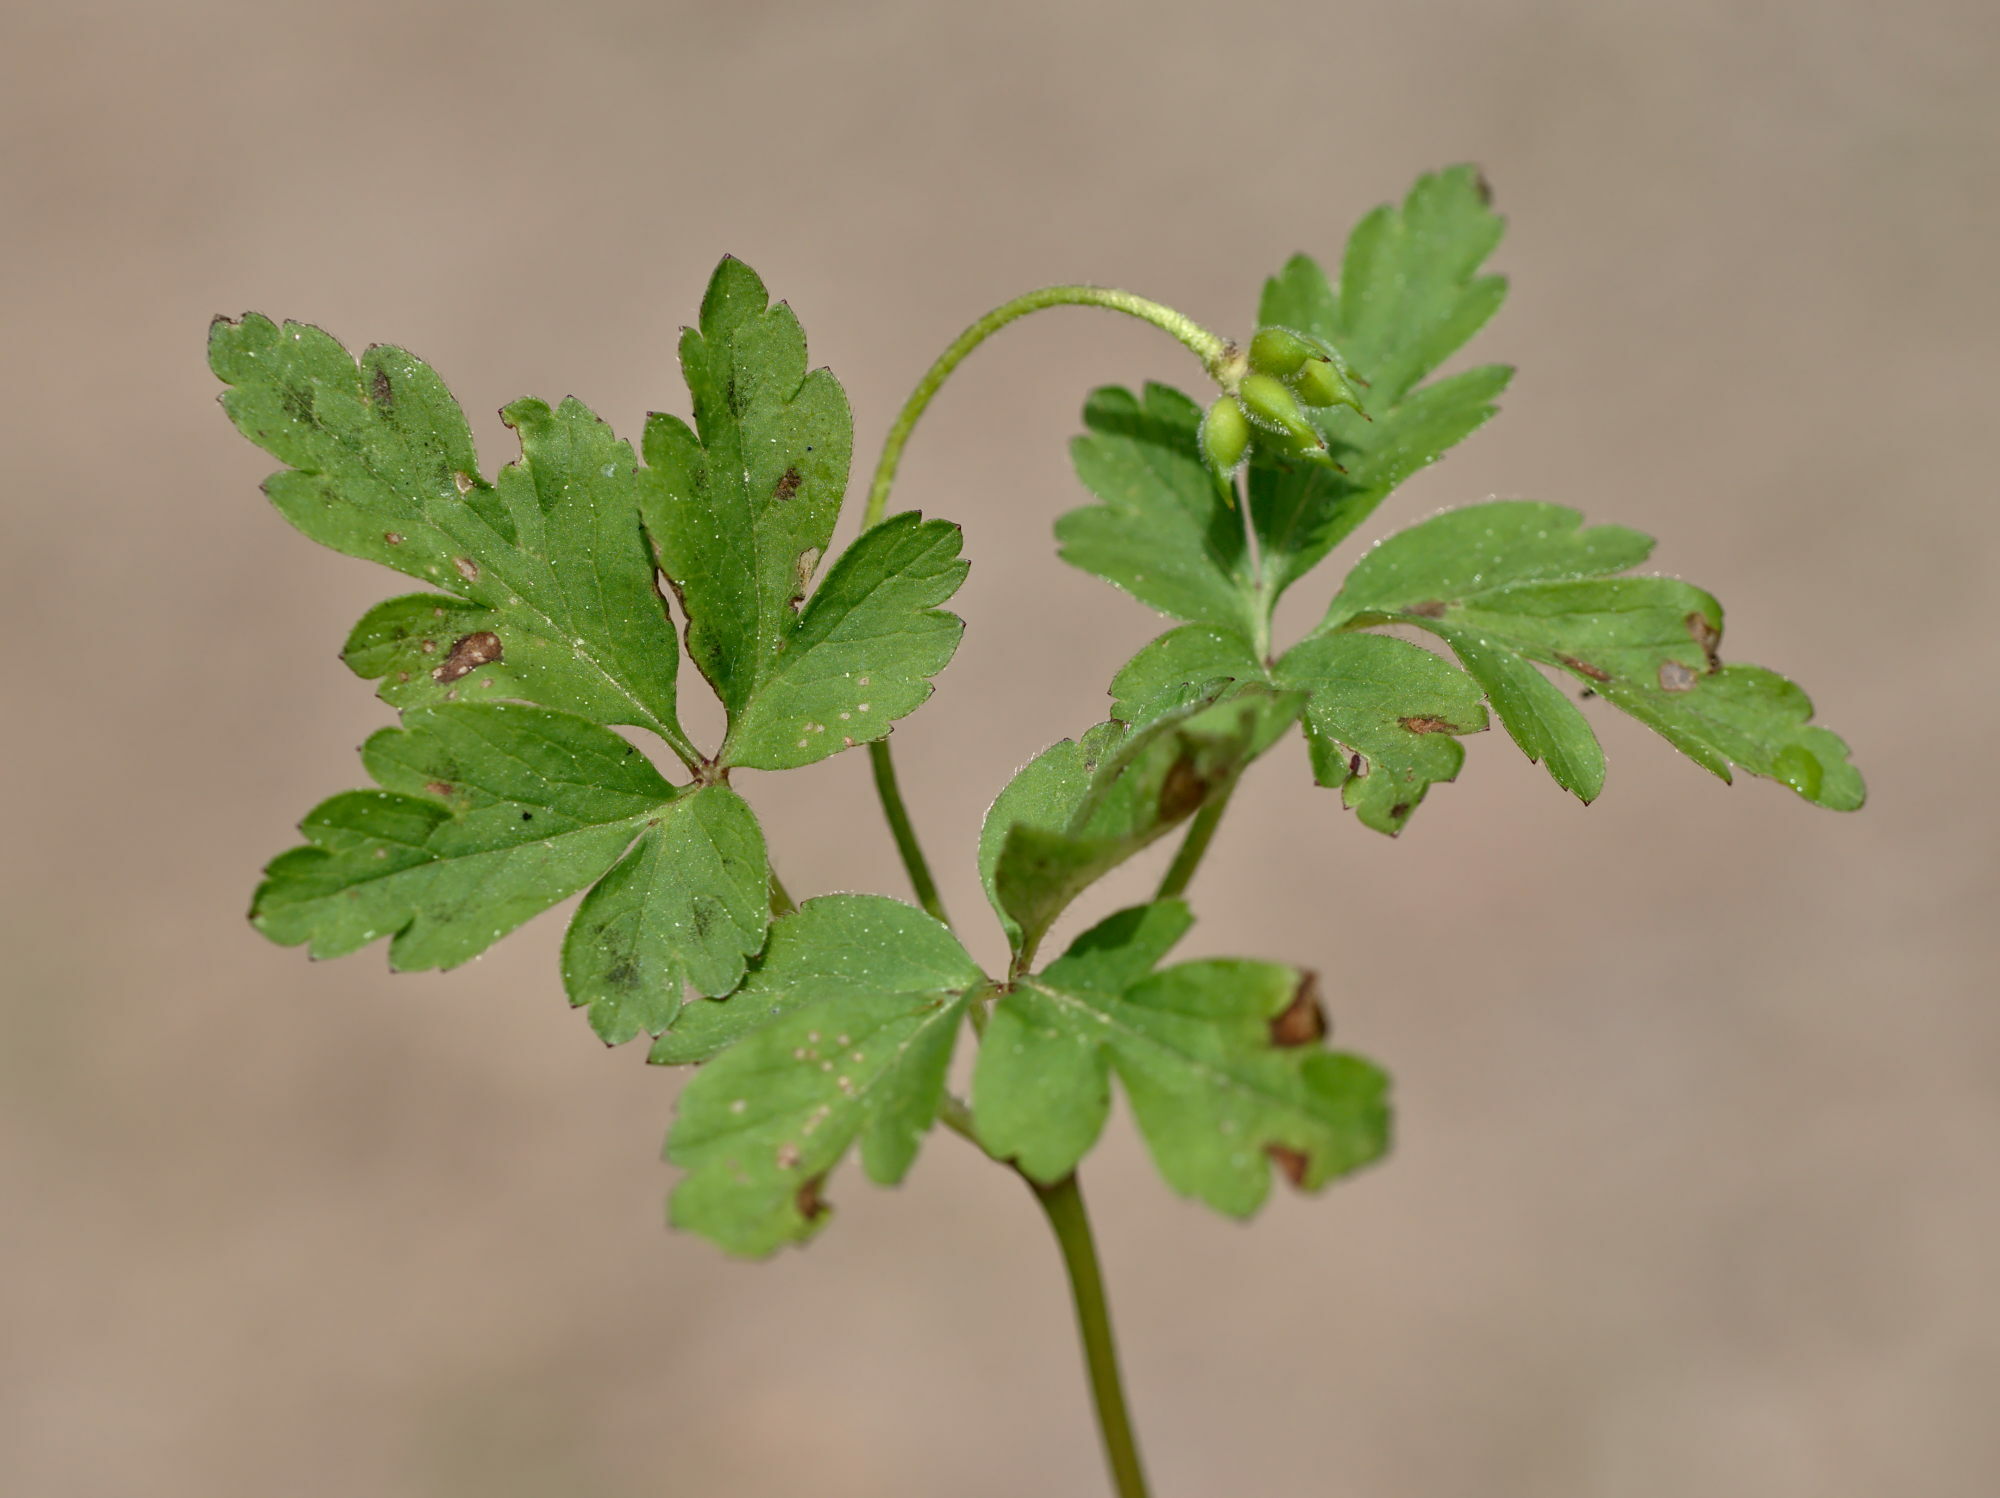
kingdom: Plantae
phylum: Tracheophyta
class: Magnoliopsida
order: Ranunculales
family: Ranunculaceae
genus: Anemone
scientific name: Anemone nemorosa
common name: Wood anemone
